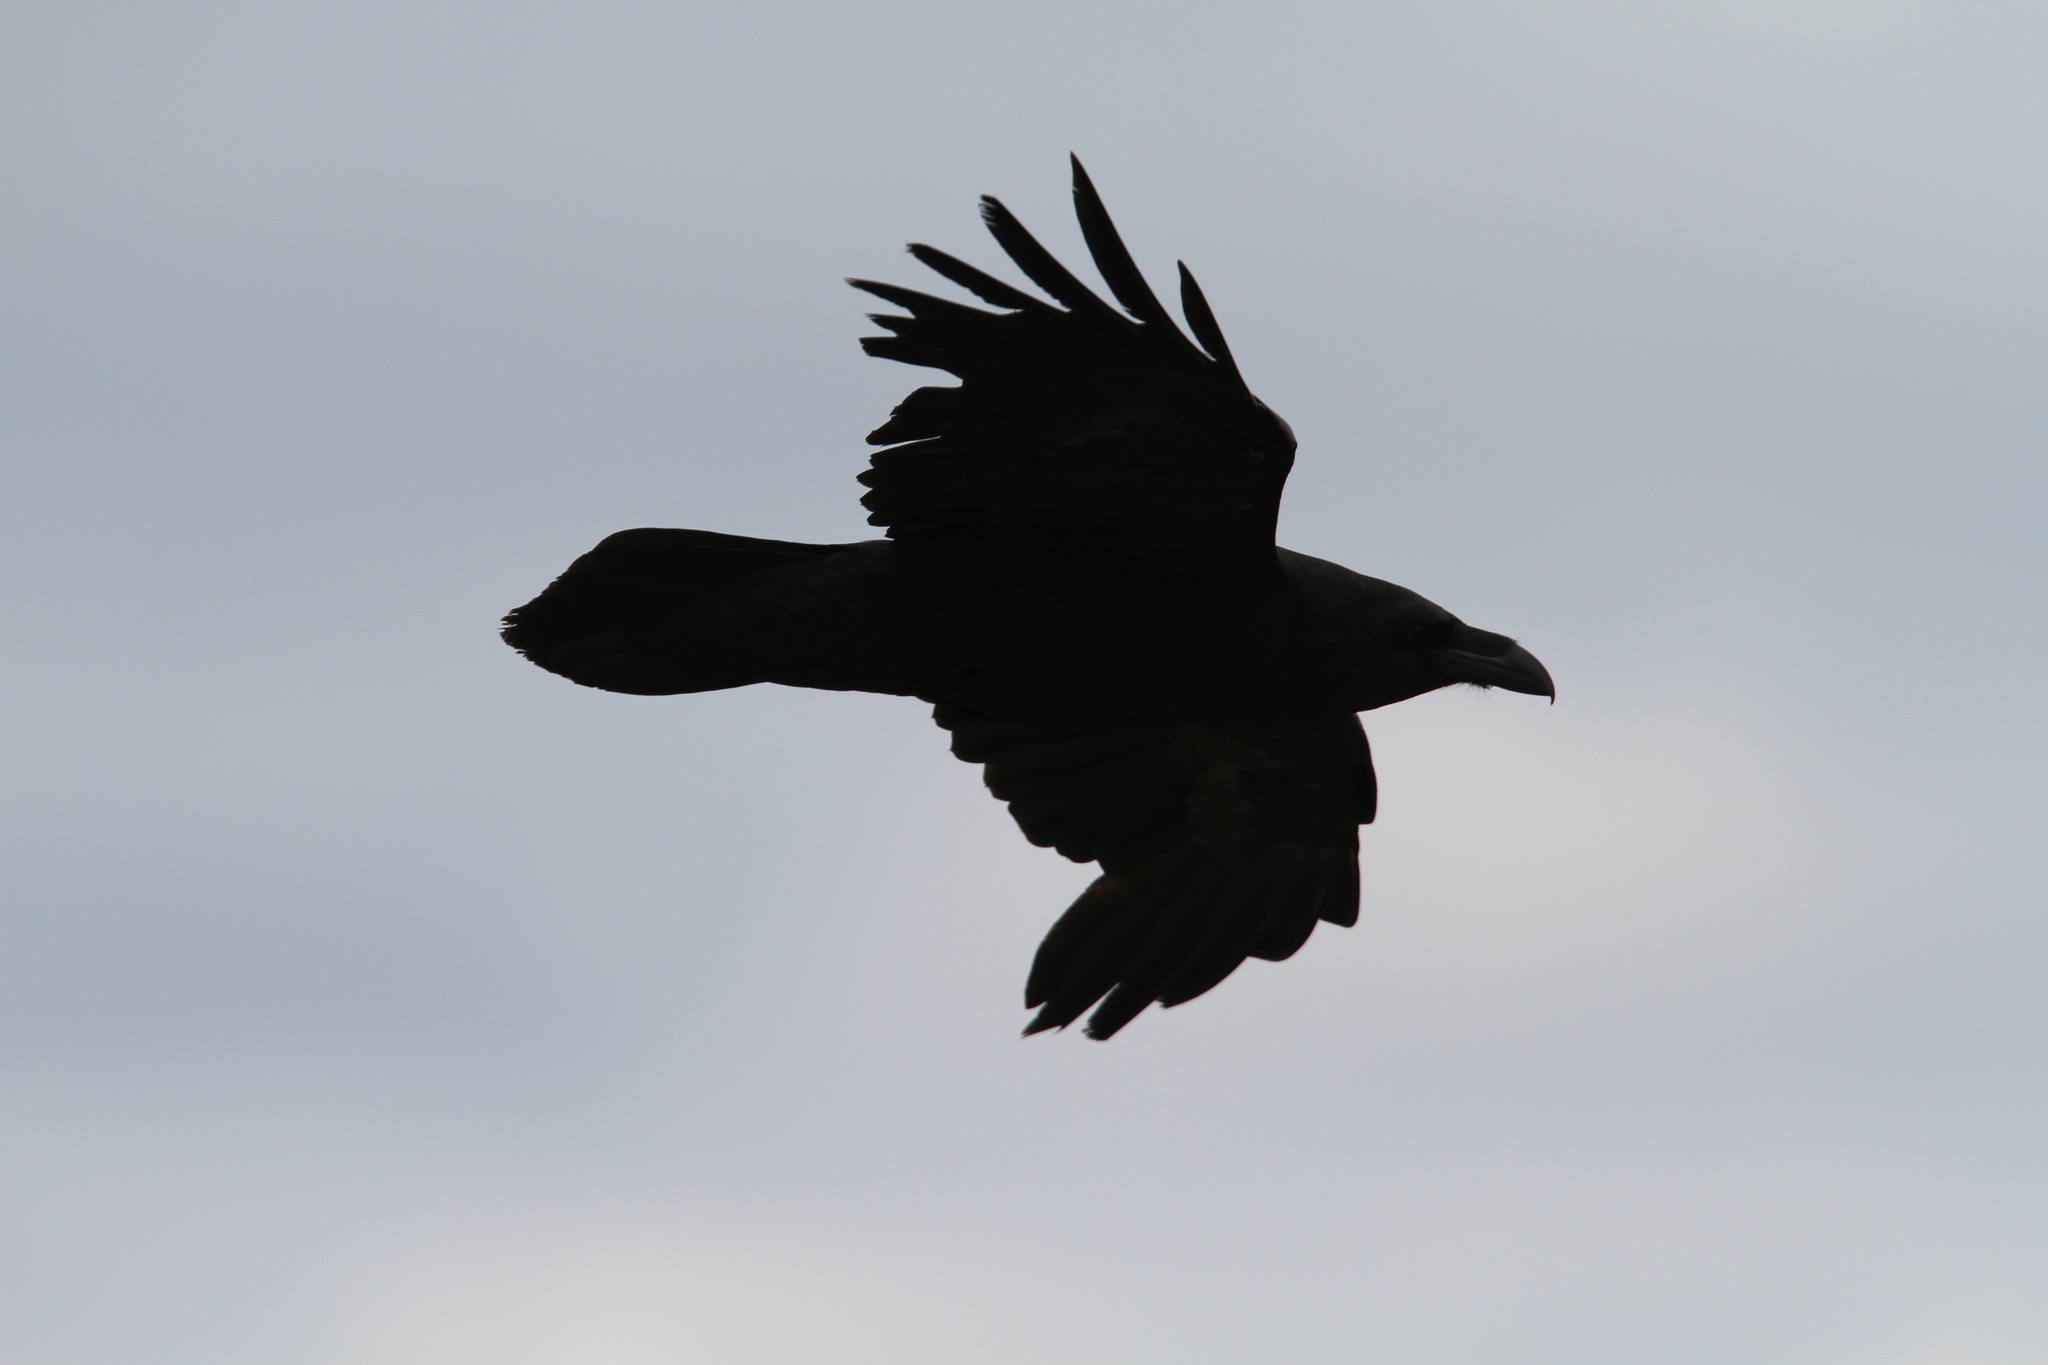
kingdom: Animalia
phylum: Chordata
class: Aves
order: Passeriformes
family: Corvidae
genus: Corvus
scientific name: Corvus corax
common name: Common raven
